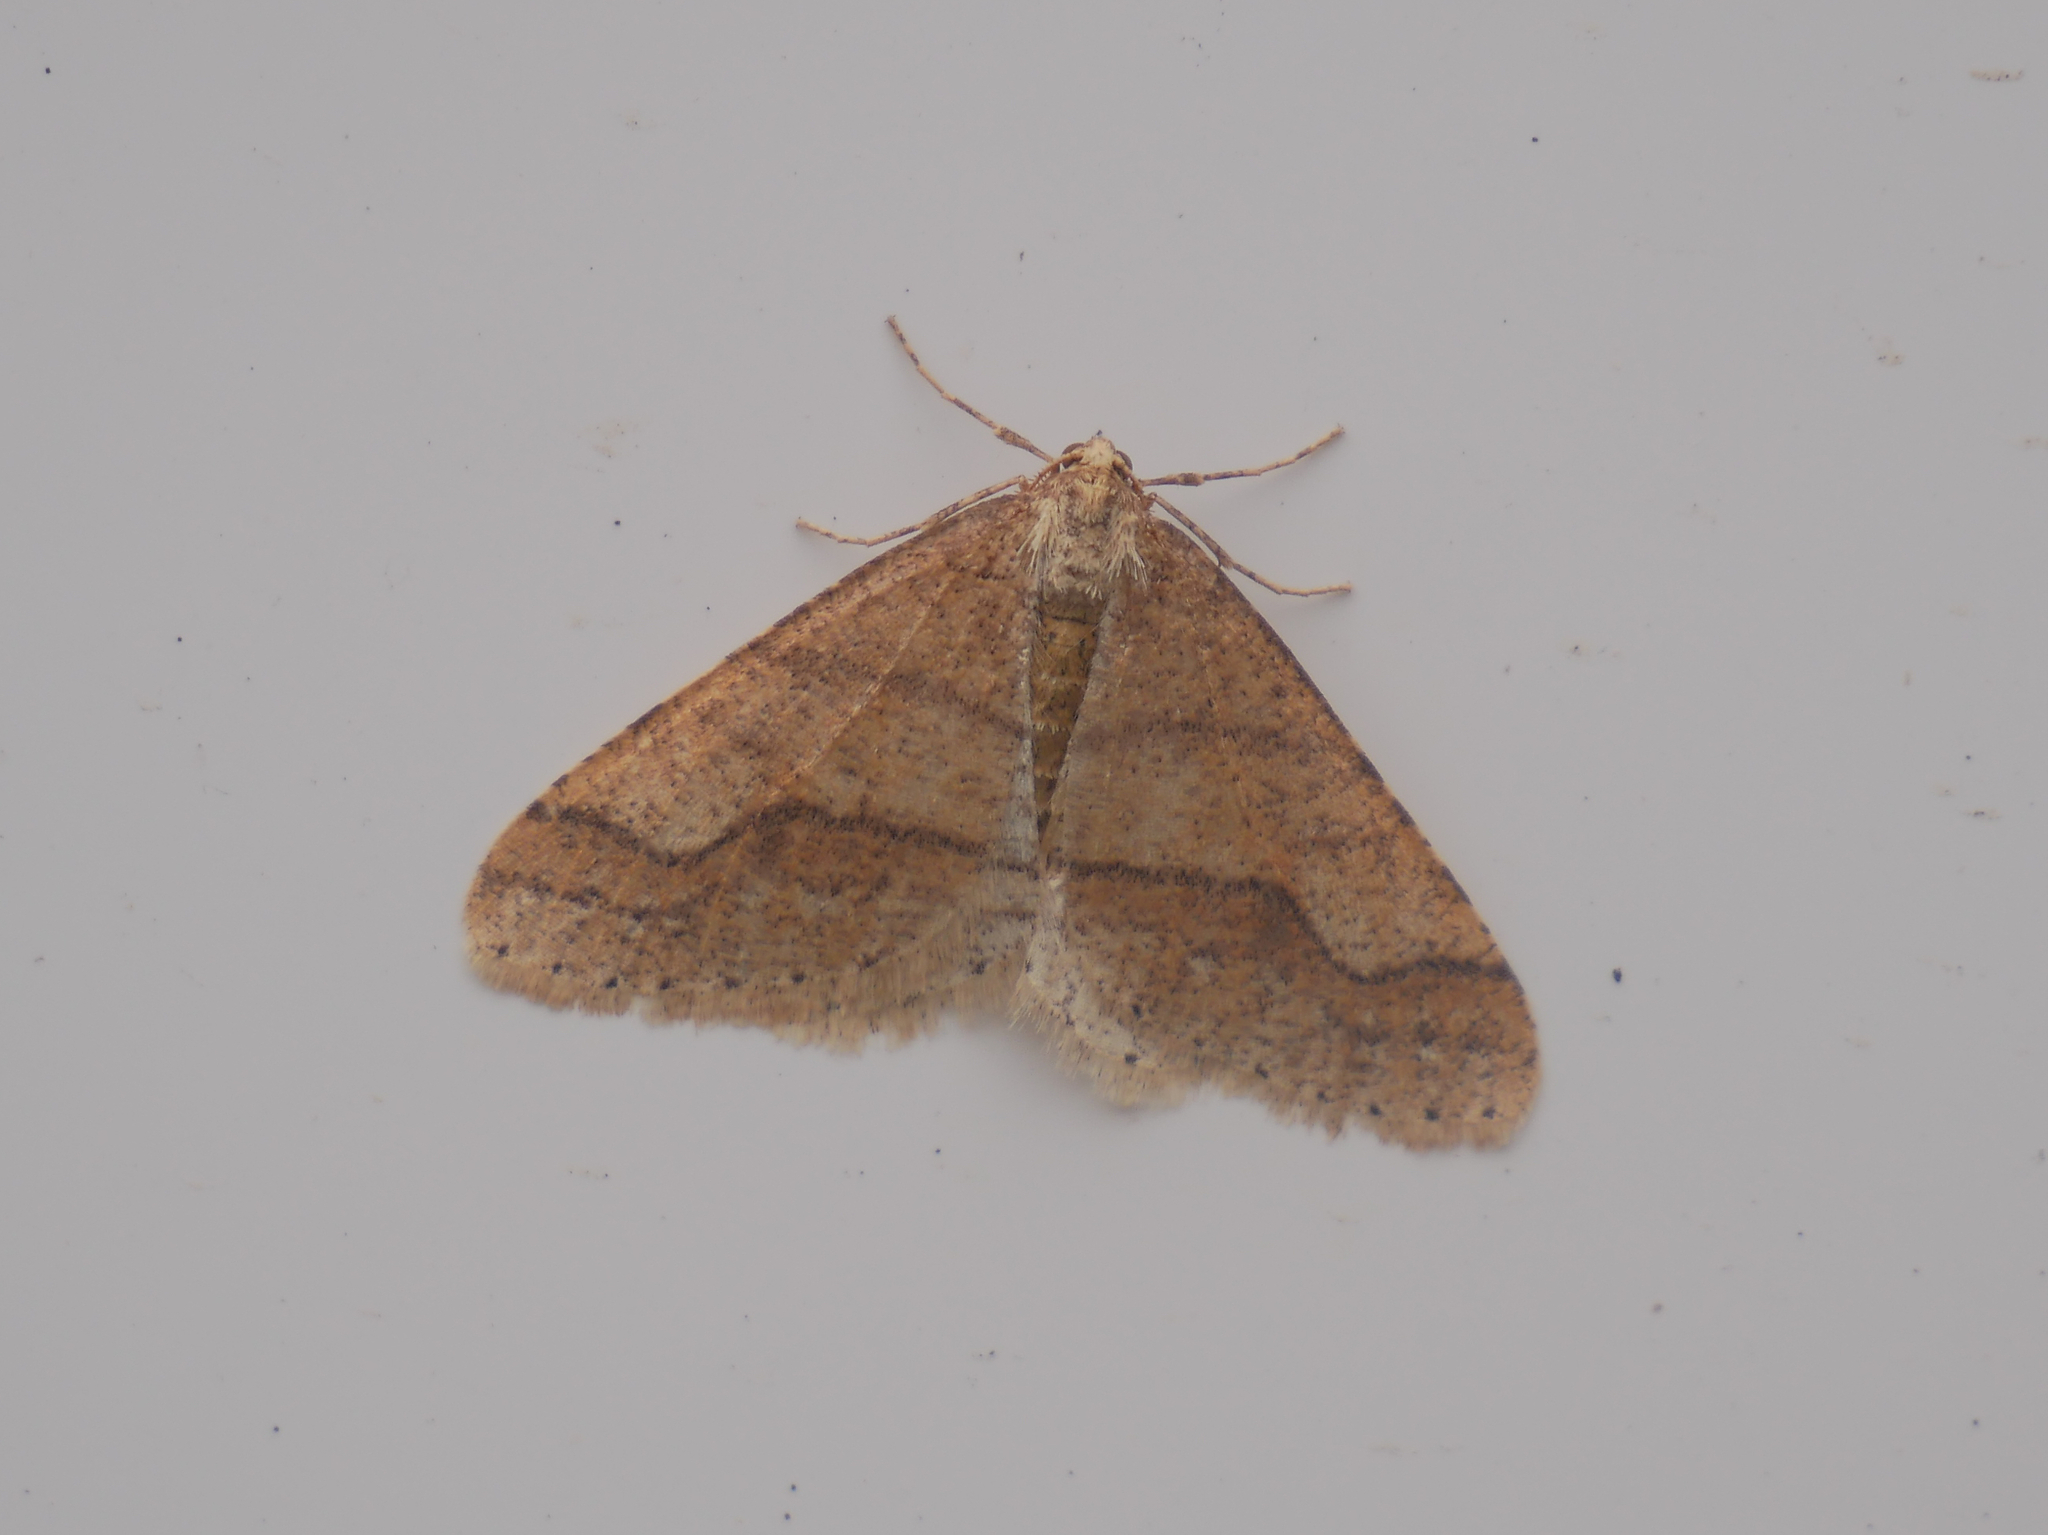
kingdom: Animalia
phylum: Arthropoda
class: Insecta
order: Lepidoptera
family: Geometridae
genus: Agriopis
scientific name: Agriopis marginaria
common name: Dotted border
